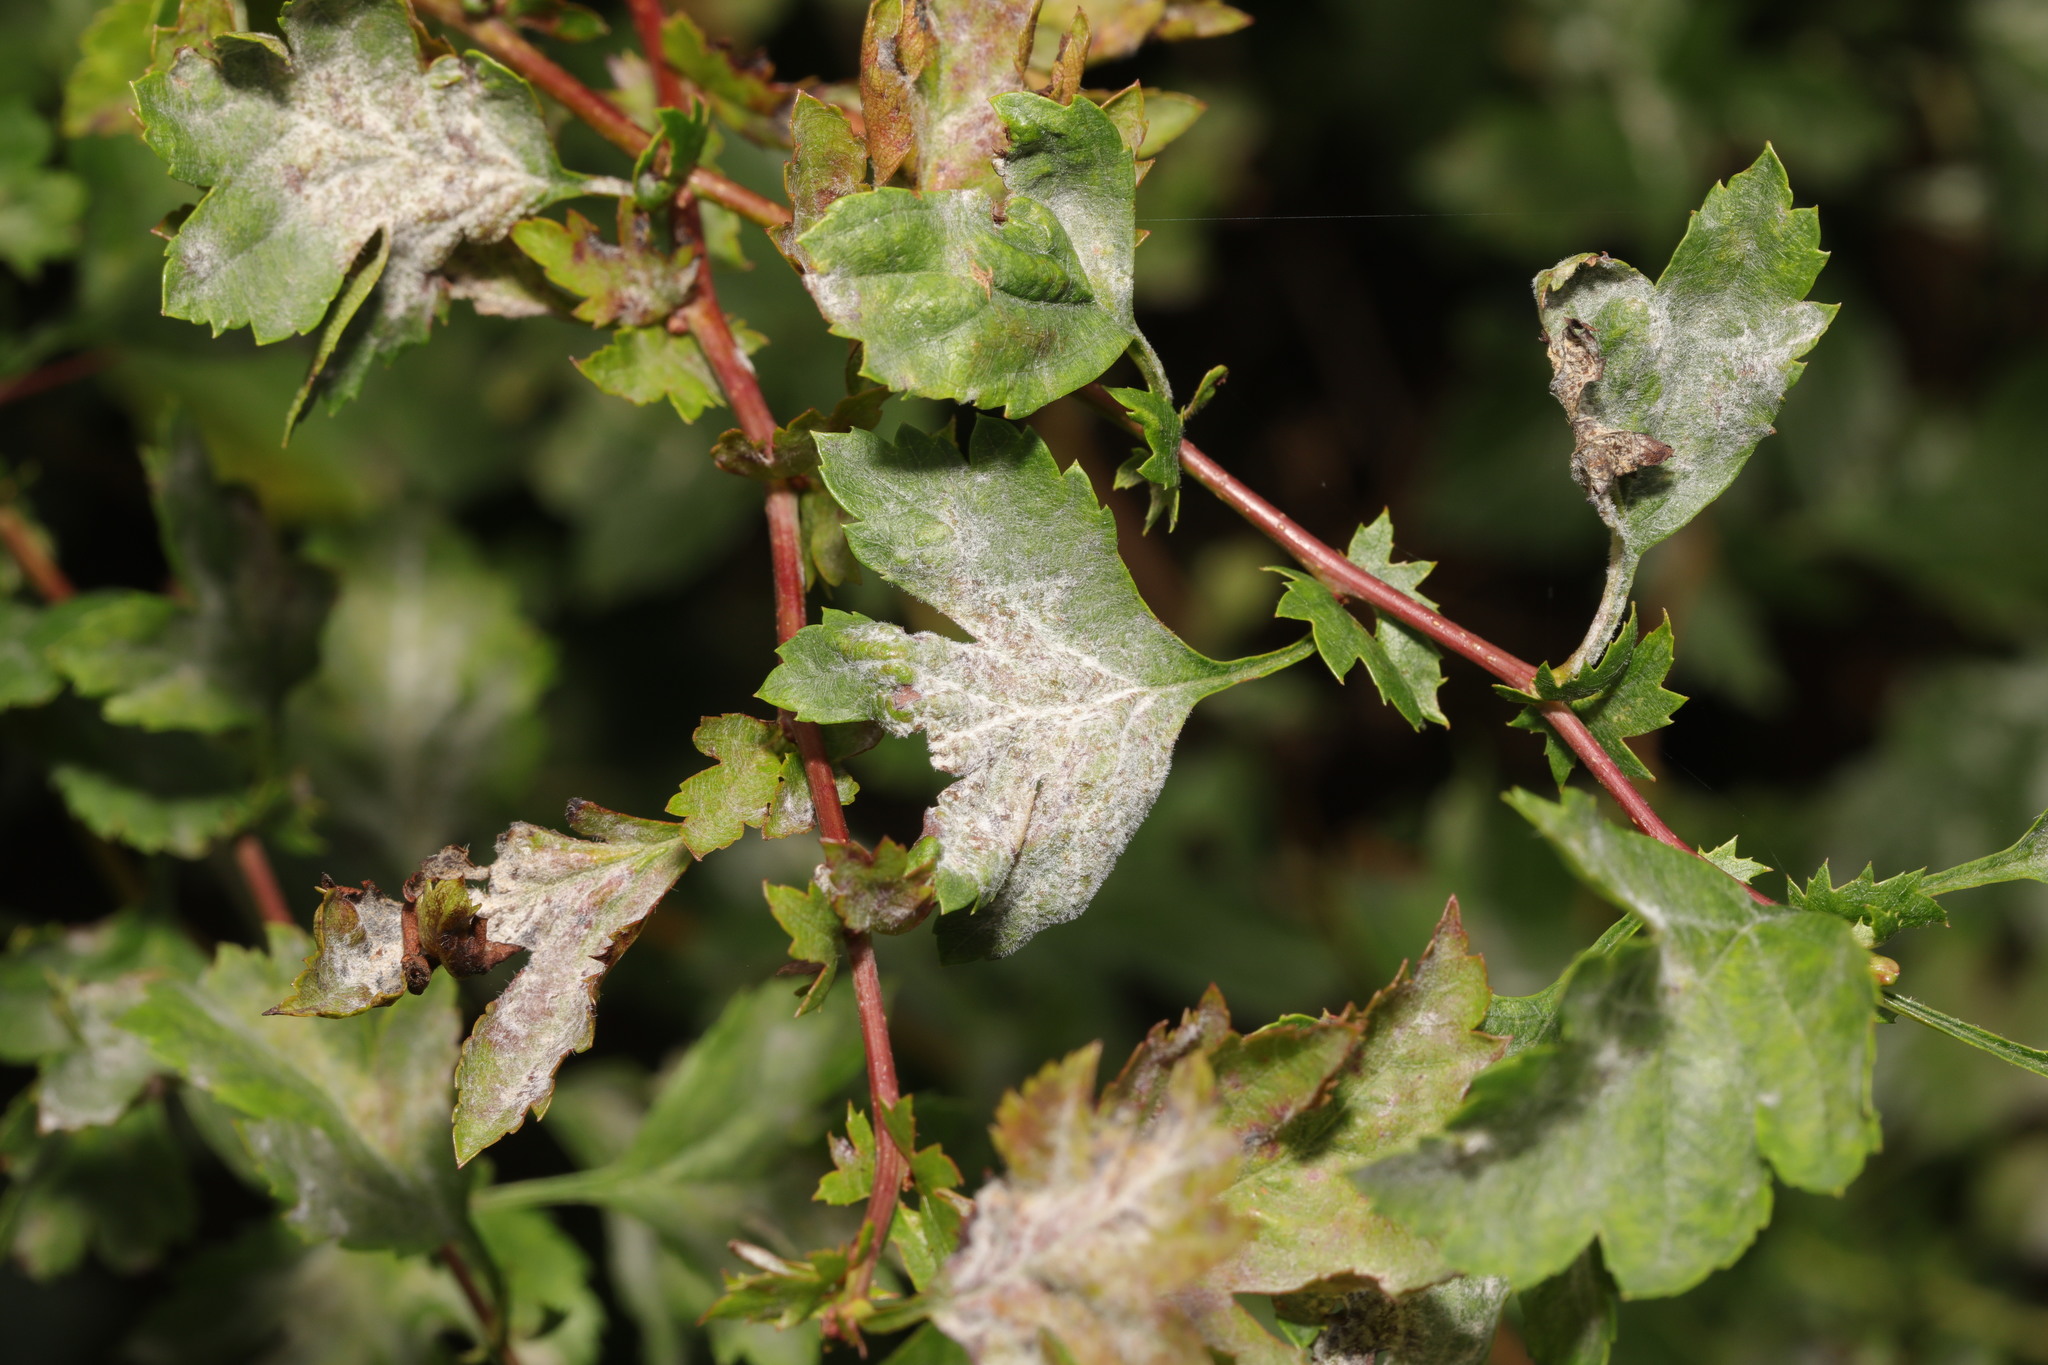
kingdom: Fungi
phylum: Ascomycota
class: Leotiomycetes
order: Helotiales
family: Erysiphaceae
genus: Podosphaera
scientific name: Podosphaera clandestina
